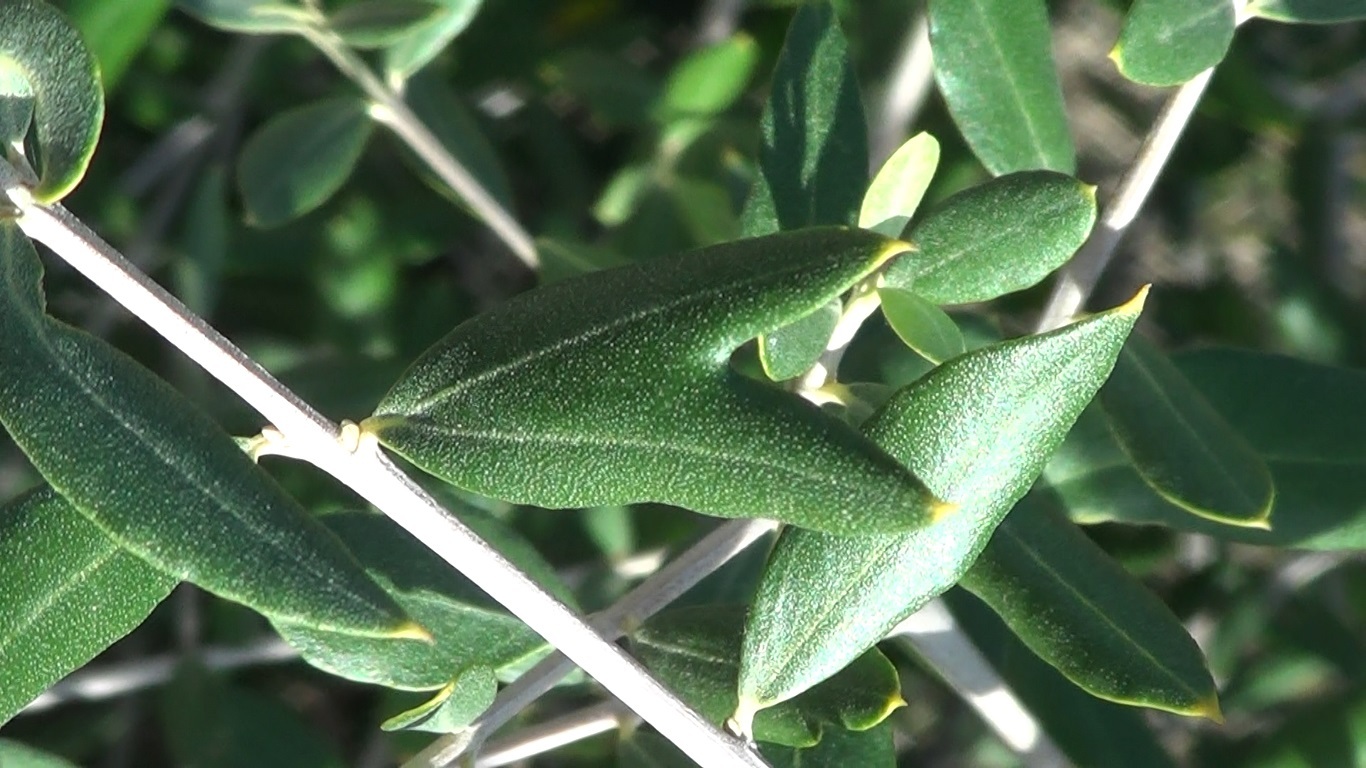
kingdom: Plantae
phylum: Tracheophyta
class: Magnoliopsida
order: Lamiales
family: Oleaceae
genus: Olea
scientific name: Olea europaea
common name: Olive
